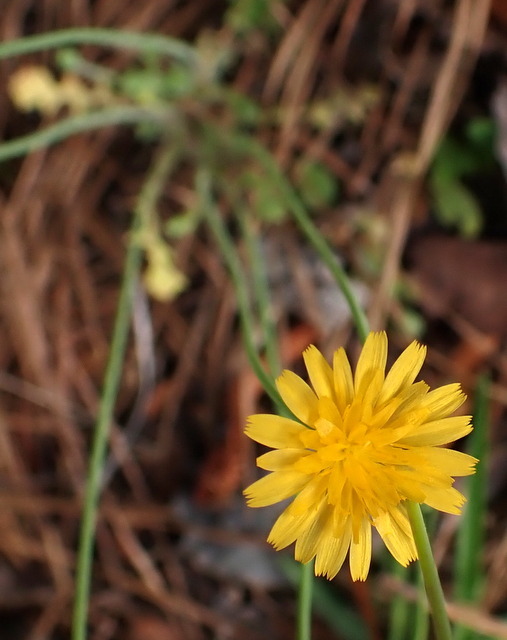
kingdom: Plantae
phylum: Tracheophyta
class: Magnoliopsida
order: Asterales
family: Asteraceae
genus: Krigia
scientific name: Krigia virginica
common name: Virginia dwarf-dandelion
